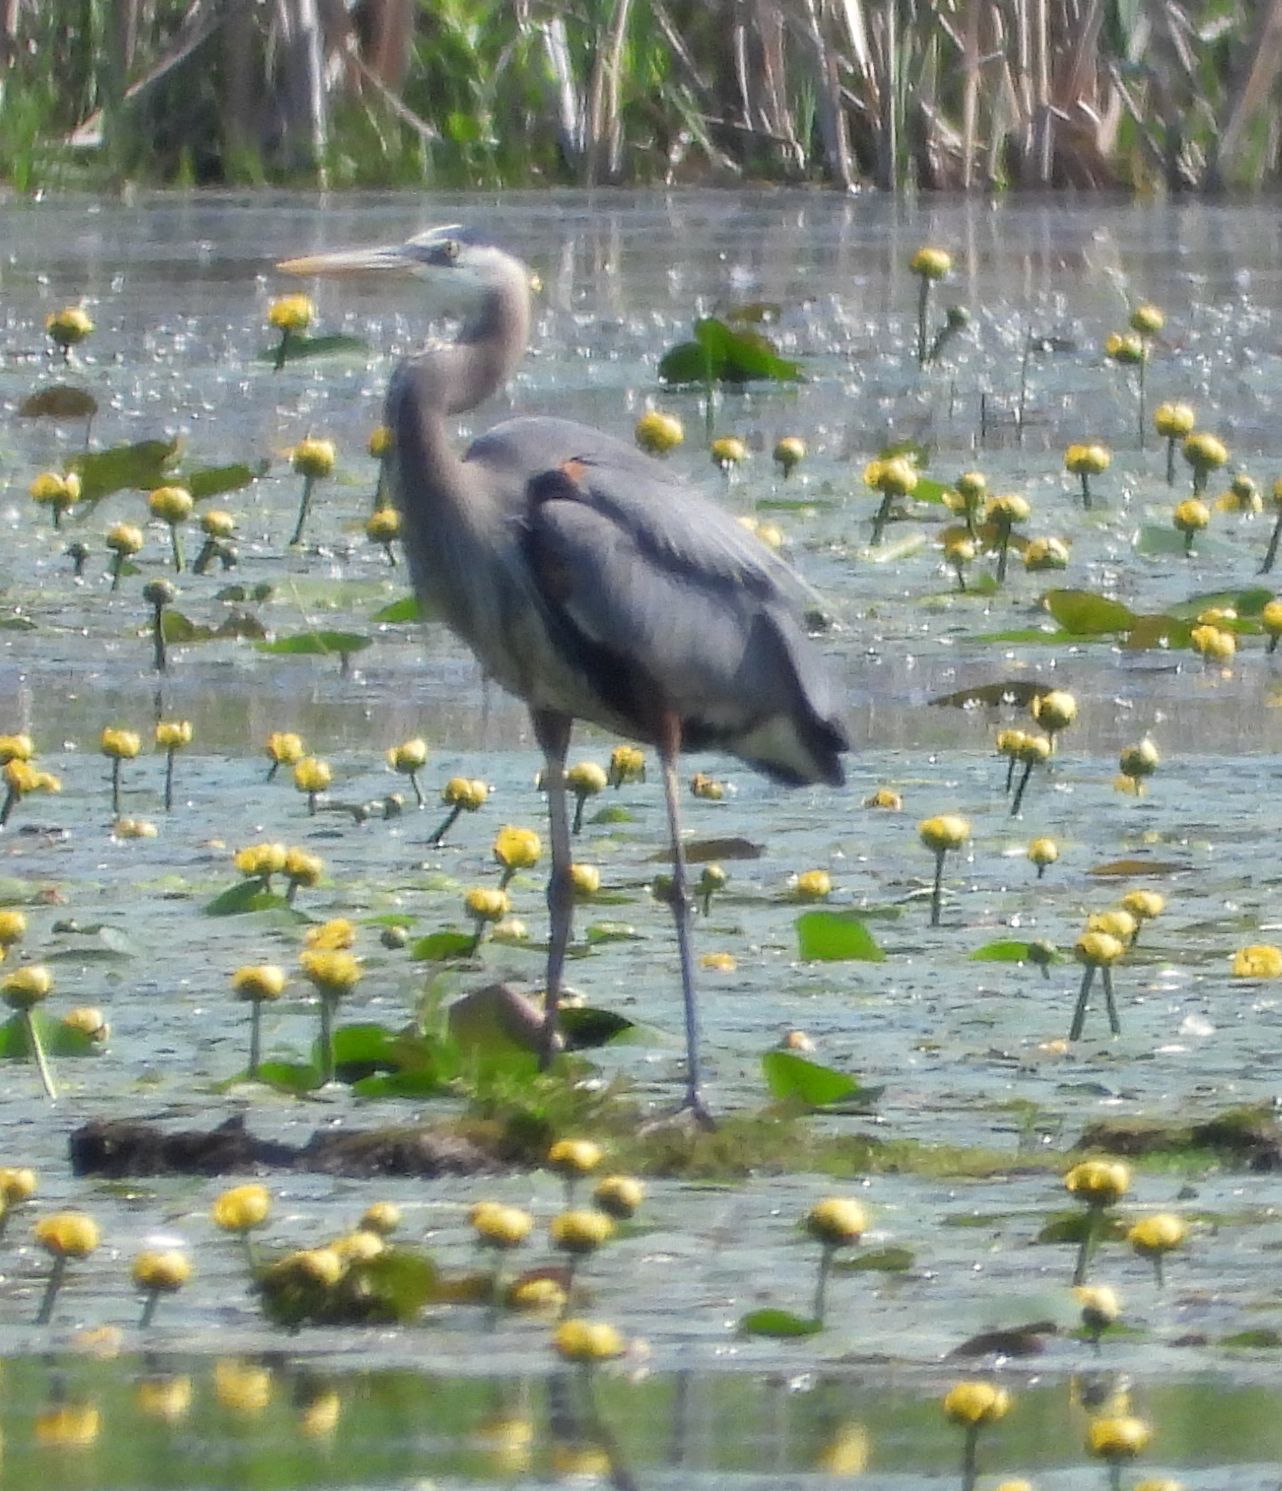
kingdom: Animalia
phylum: Chordata
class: Aves
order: Pelecaniformes
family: Ardeidae
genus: Ardea
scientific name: Ardea herodias
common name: Great blue heron
